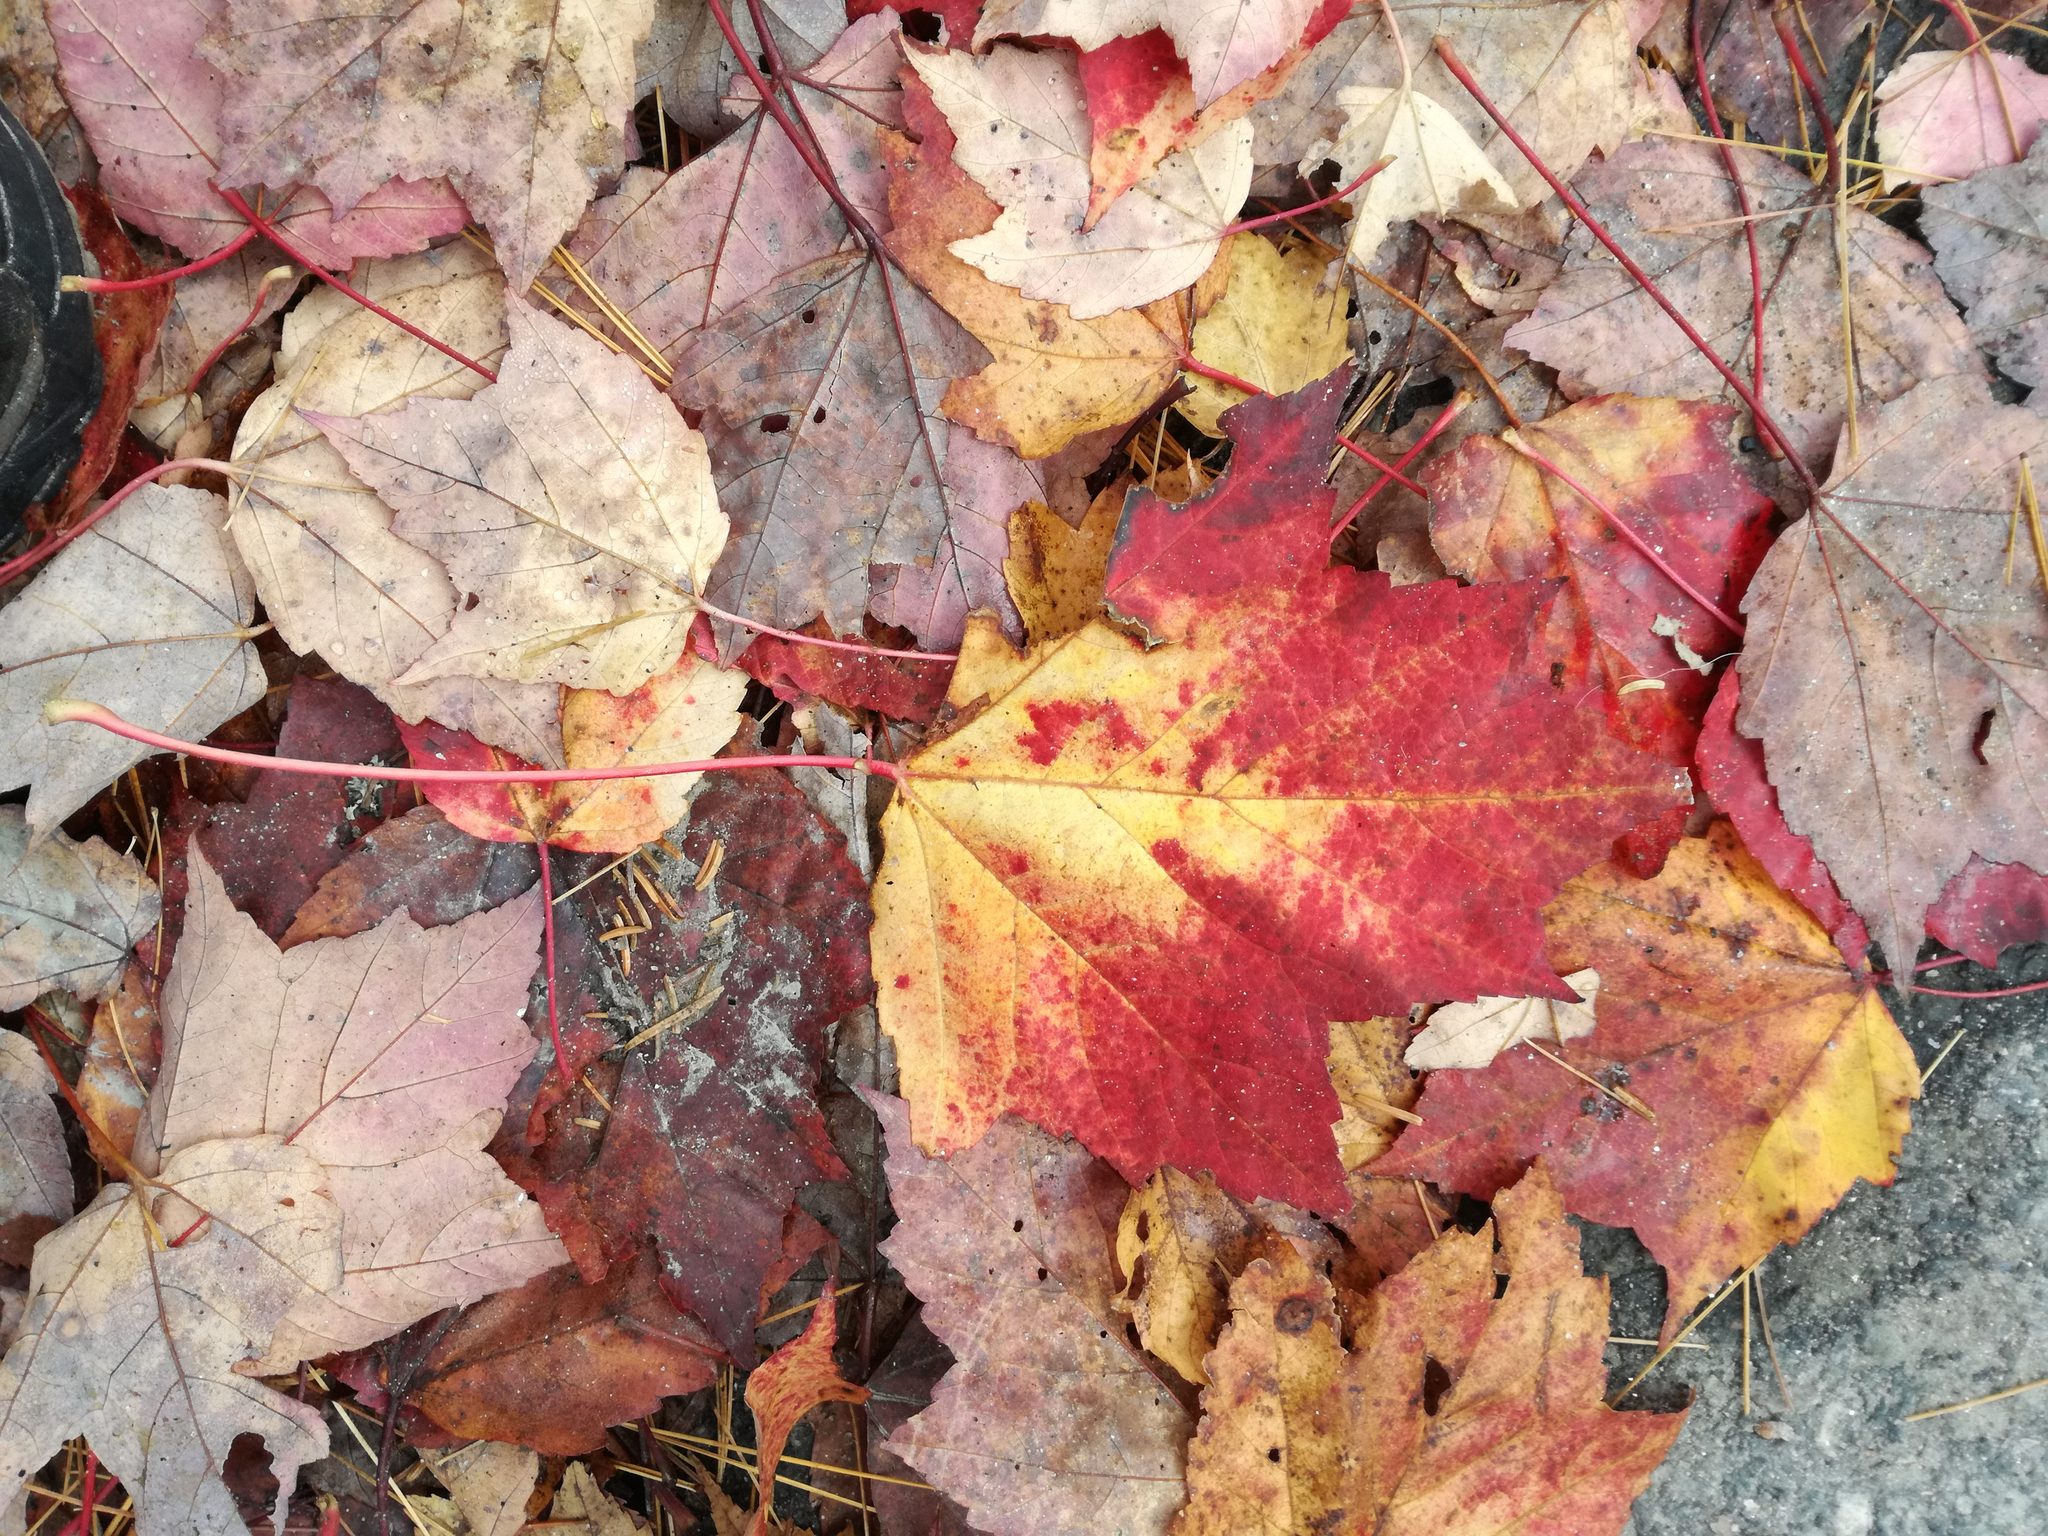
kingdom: Plantae
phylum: Tracheophyta
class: Magnoliopsida
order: Sapindales
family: Sapindaceae
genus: Acer
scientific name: Acer rubrum
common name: Red maple
